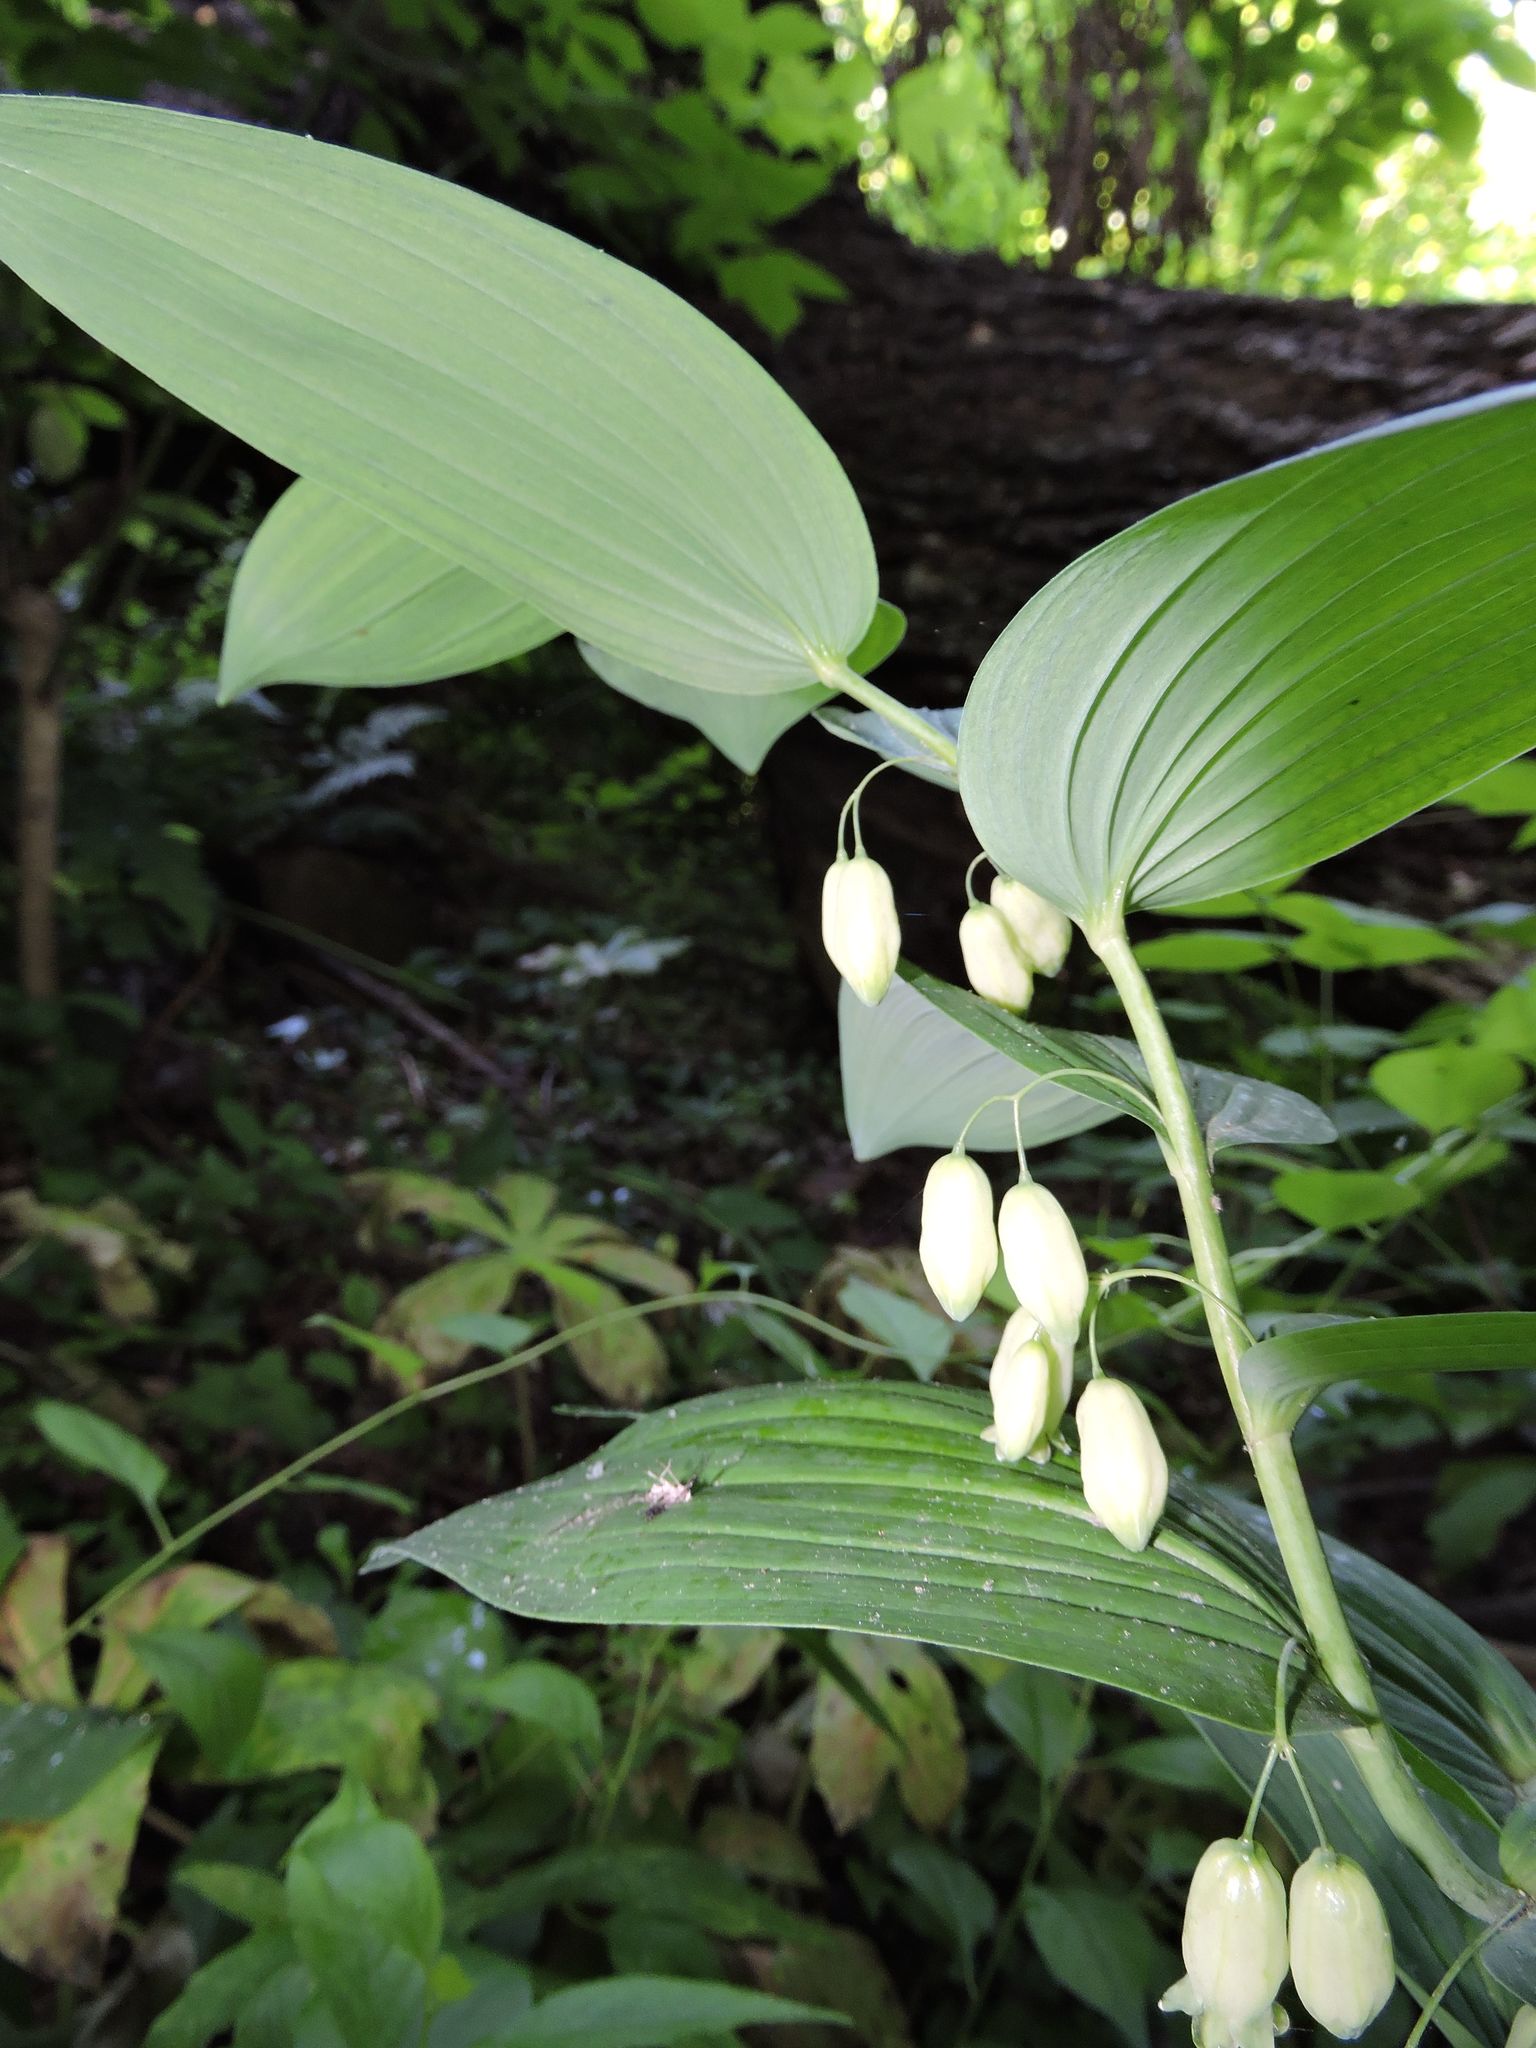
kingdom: Plantae
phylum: Tracheophyta
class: Liliopsida
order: Asparagales
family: Asparagaceae
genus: Polygonatum
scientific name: Polygonatum biflorum
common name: American solomon's-seal
